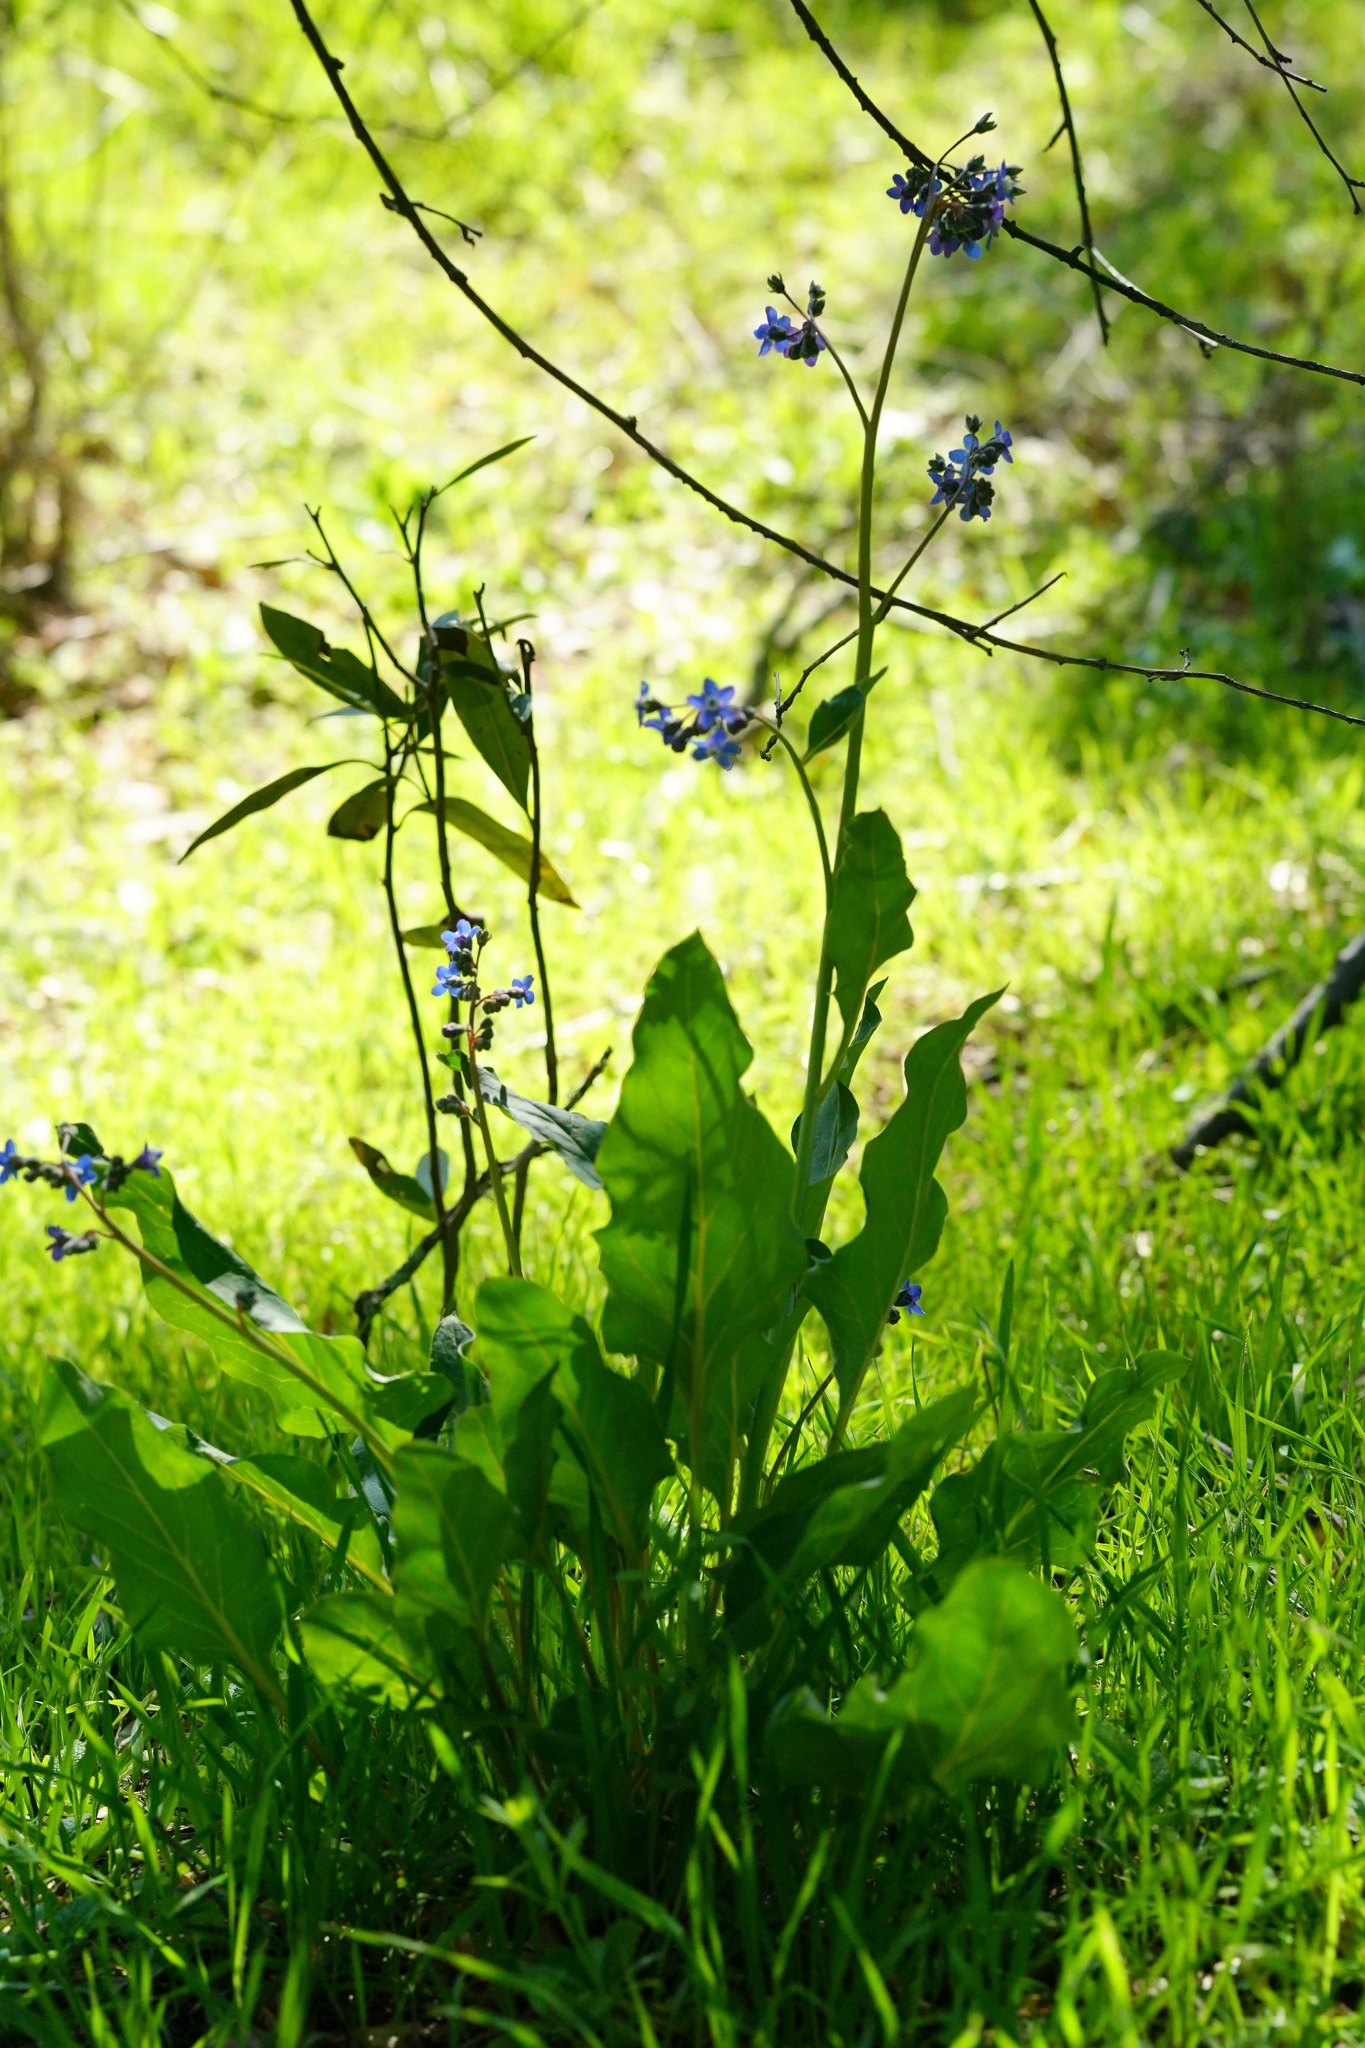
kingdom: Plantae
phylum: Tracheophyta
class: Magnoliopsida
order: Boraginales
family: Boraginaceae
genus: Adelinia
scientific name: Adelinia grande
